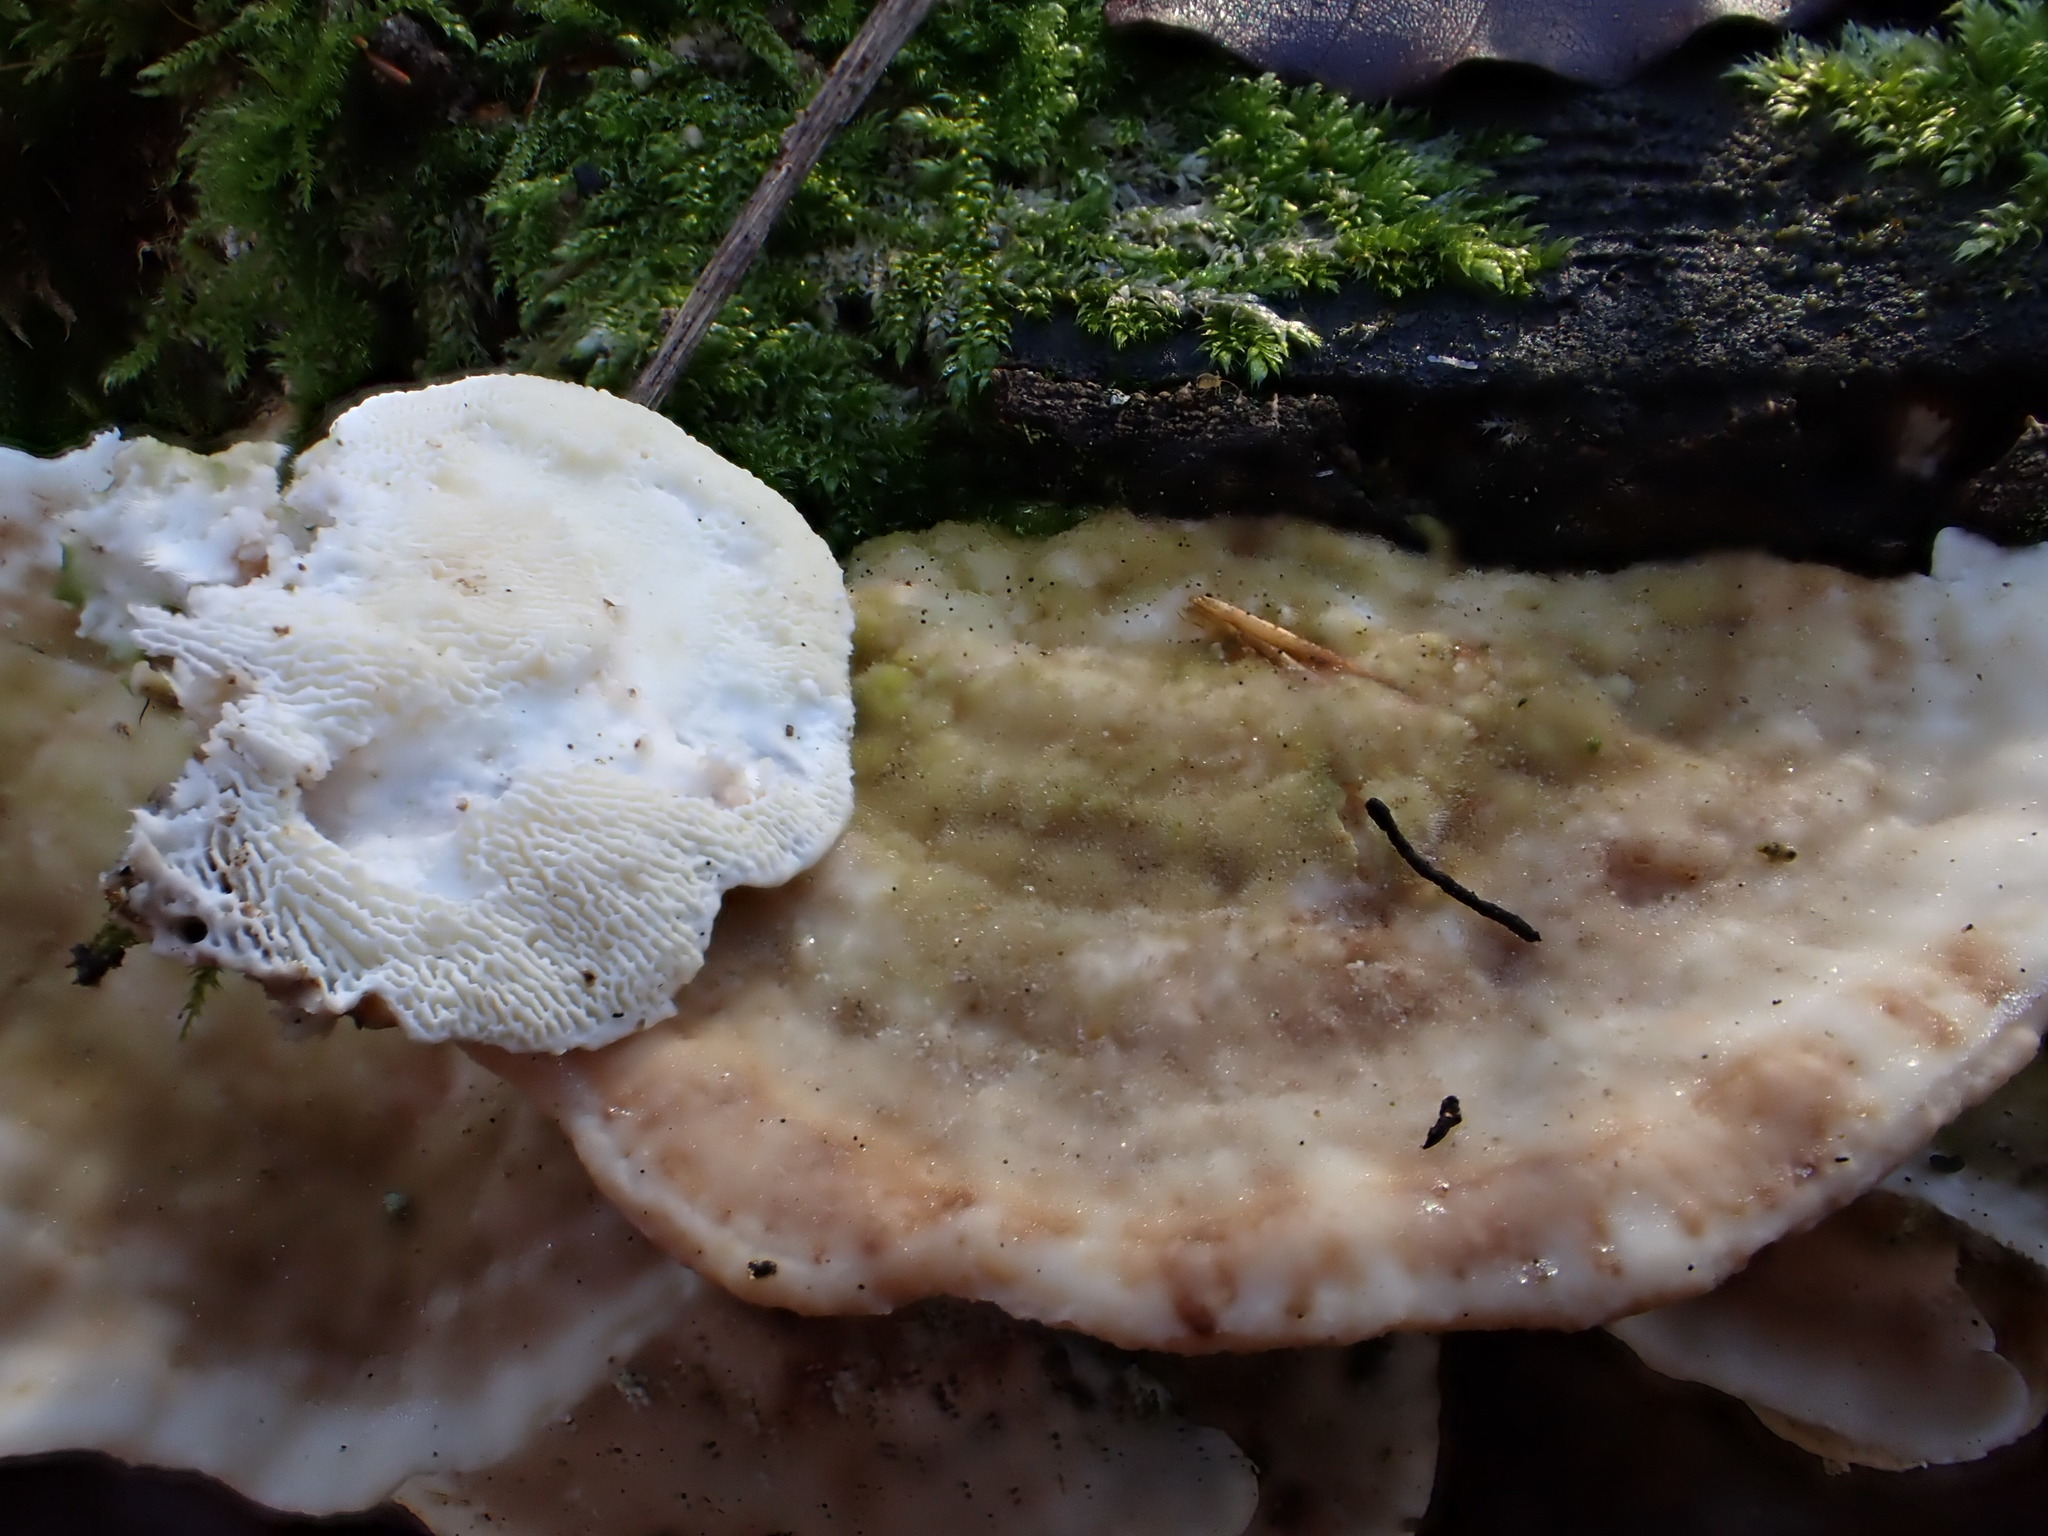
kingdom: Fungi
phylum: Basidiomycota
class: Agaricomycetes
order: Polyporales
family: Polyporaceae
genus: Trametes
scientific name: Trametes gibbosa
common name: Lumpy bracket
